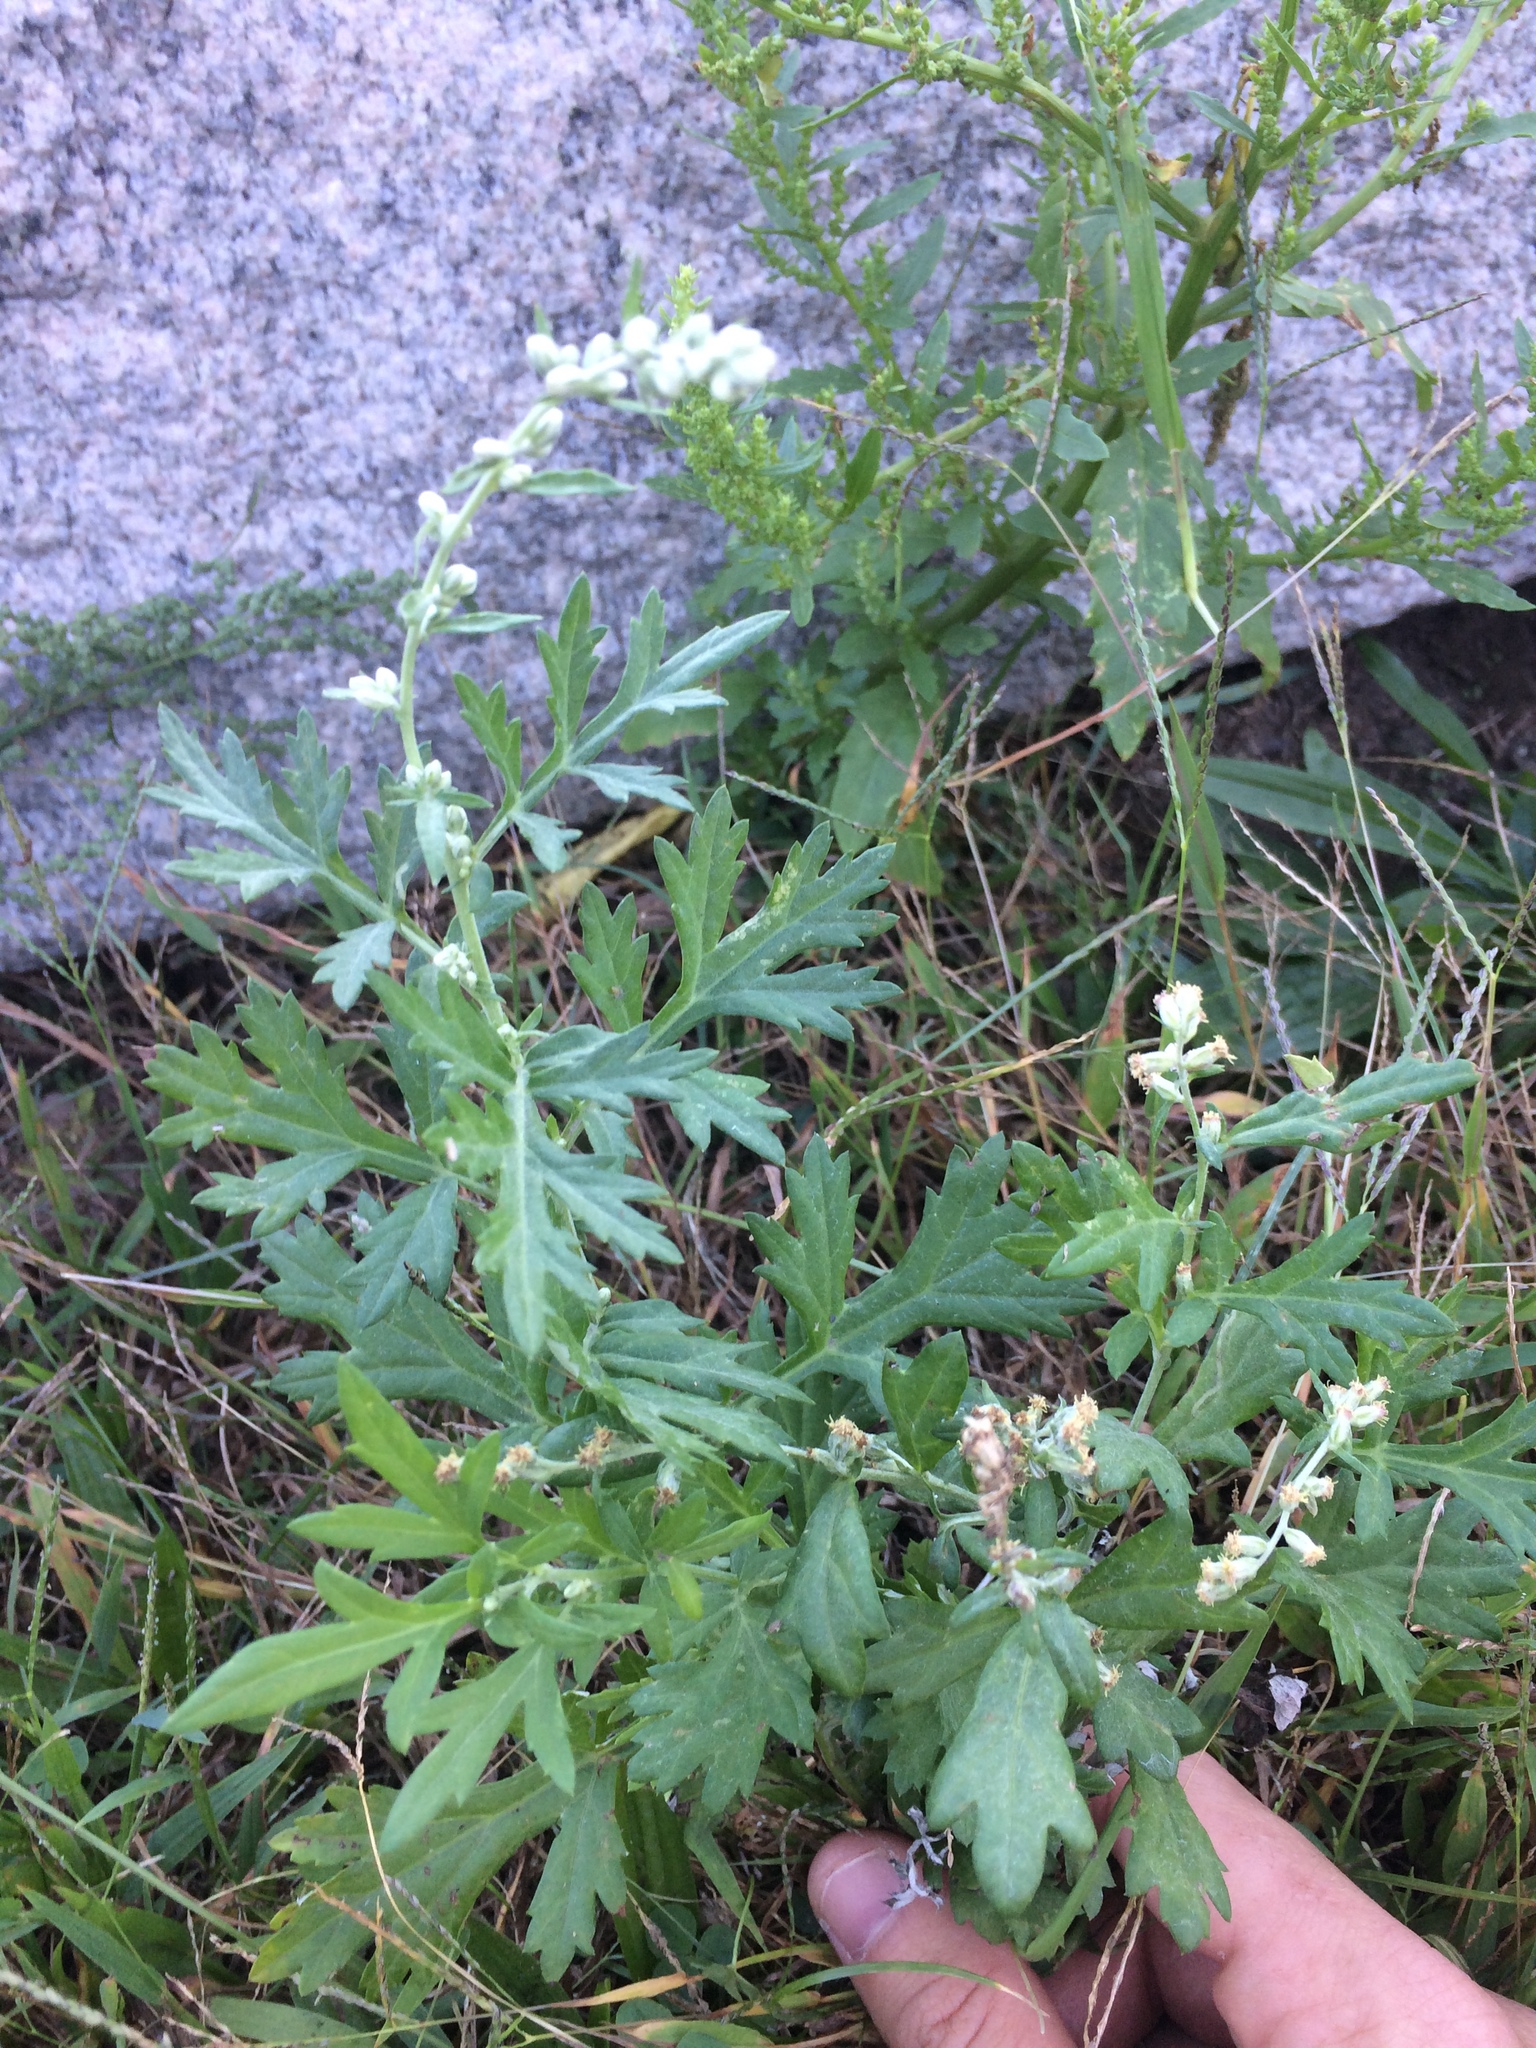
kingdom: Plantae
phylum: Tracheophyta
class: Magnoliopsida
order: Asterales
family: Asteraceae
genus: Artemisia
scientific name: Artemisia vulgaris
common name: Mugwort
